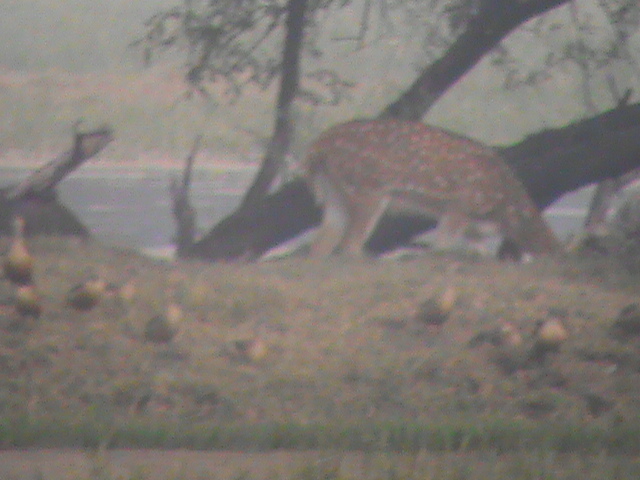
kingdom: Animalia
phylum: Chordata
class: Mammalia
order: Artiodactyla
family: Cervidae
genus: Axis
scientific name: Axis axis
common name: Chital
